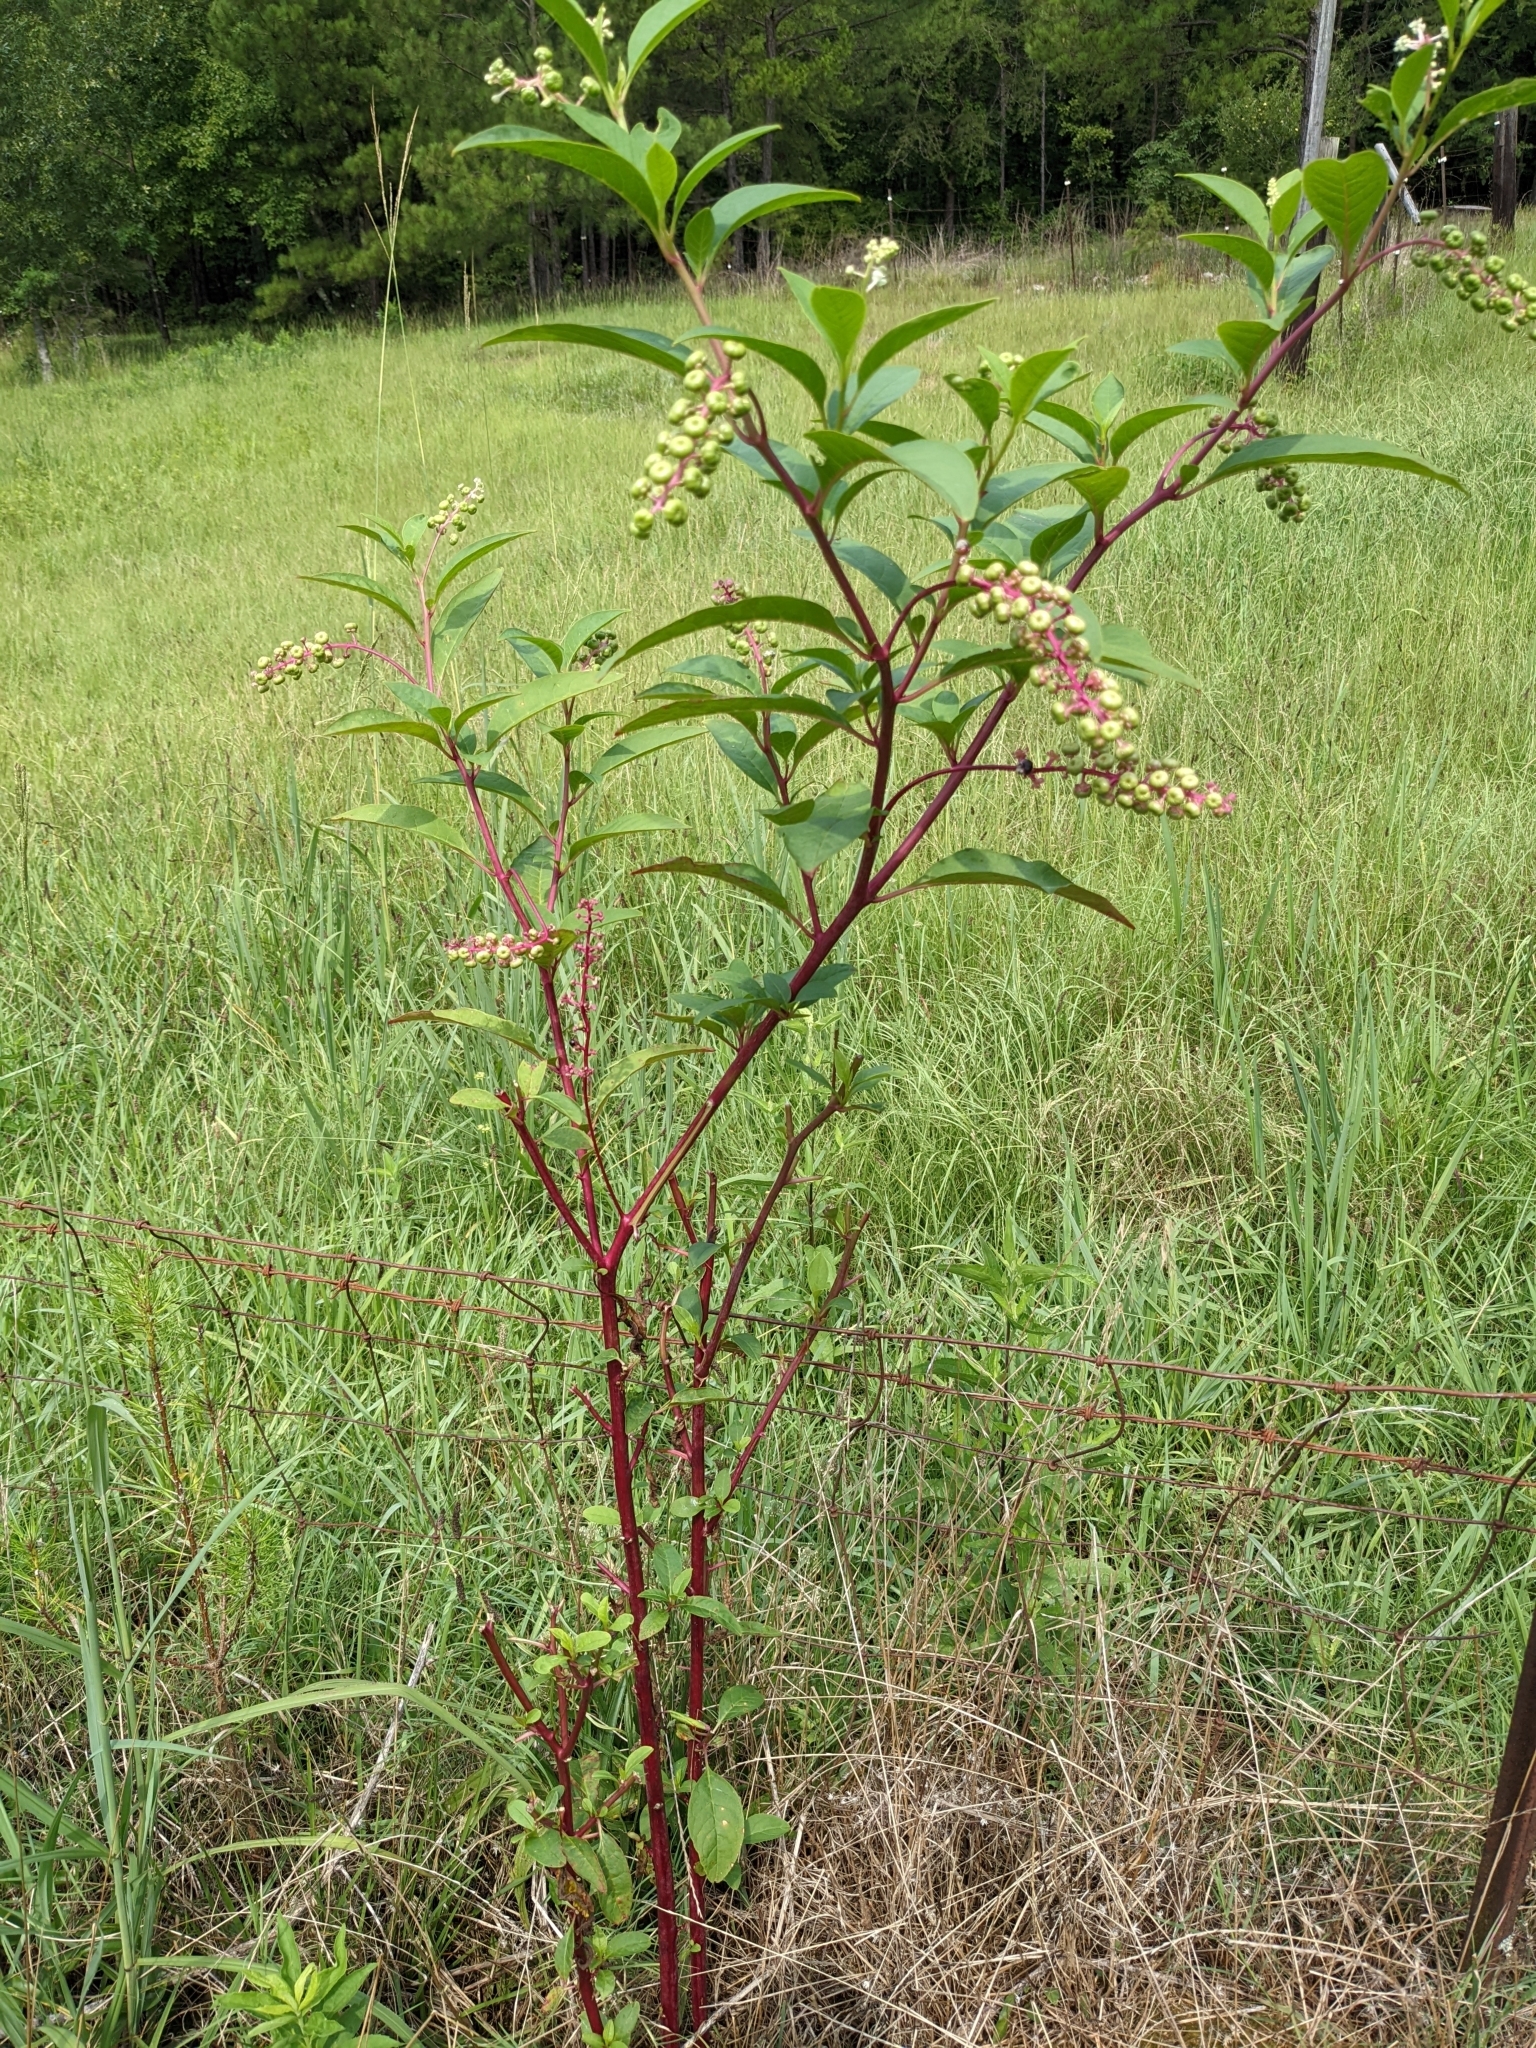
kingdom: Plantae
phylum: Tracheophyta
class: Magnoliopsida
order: Caryophyllales
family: Phytolaccaceae
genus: Phytolacca
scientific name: Phytolacca americana
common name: American pokeweed
